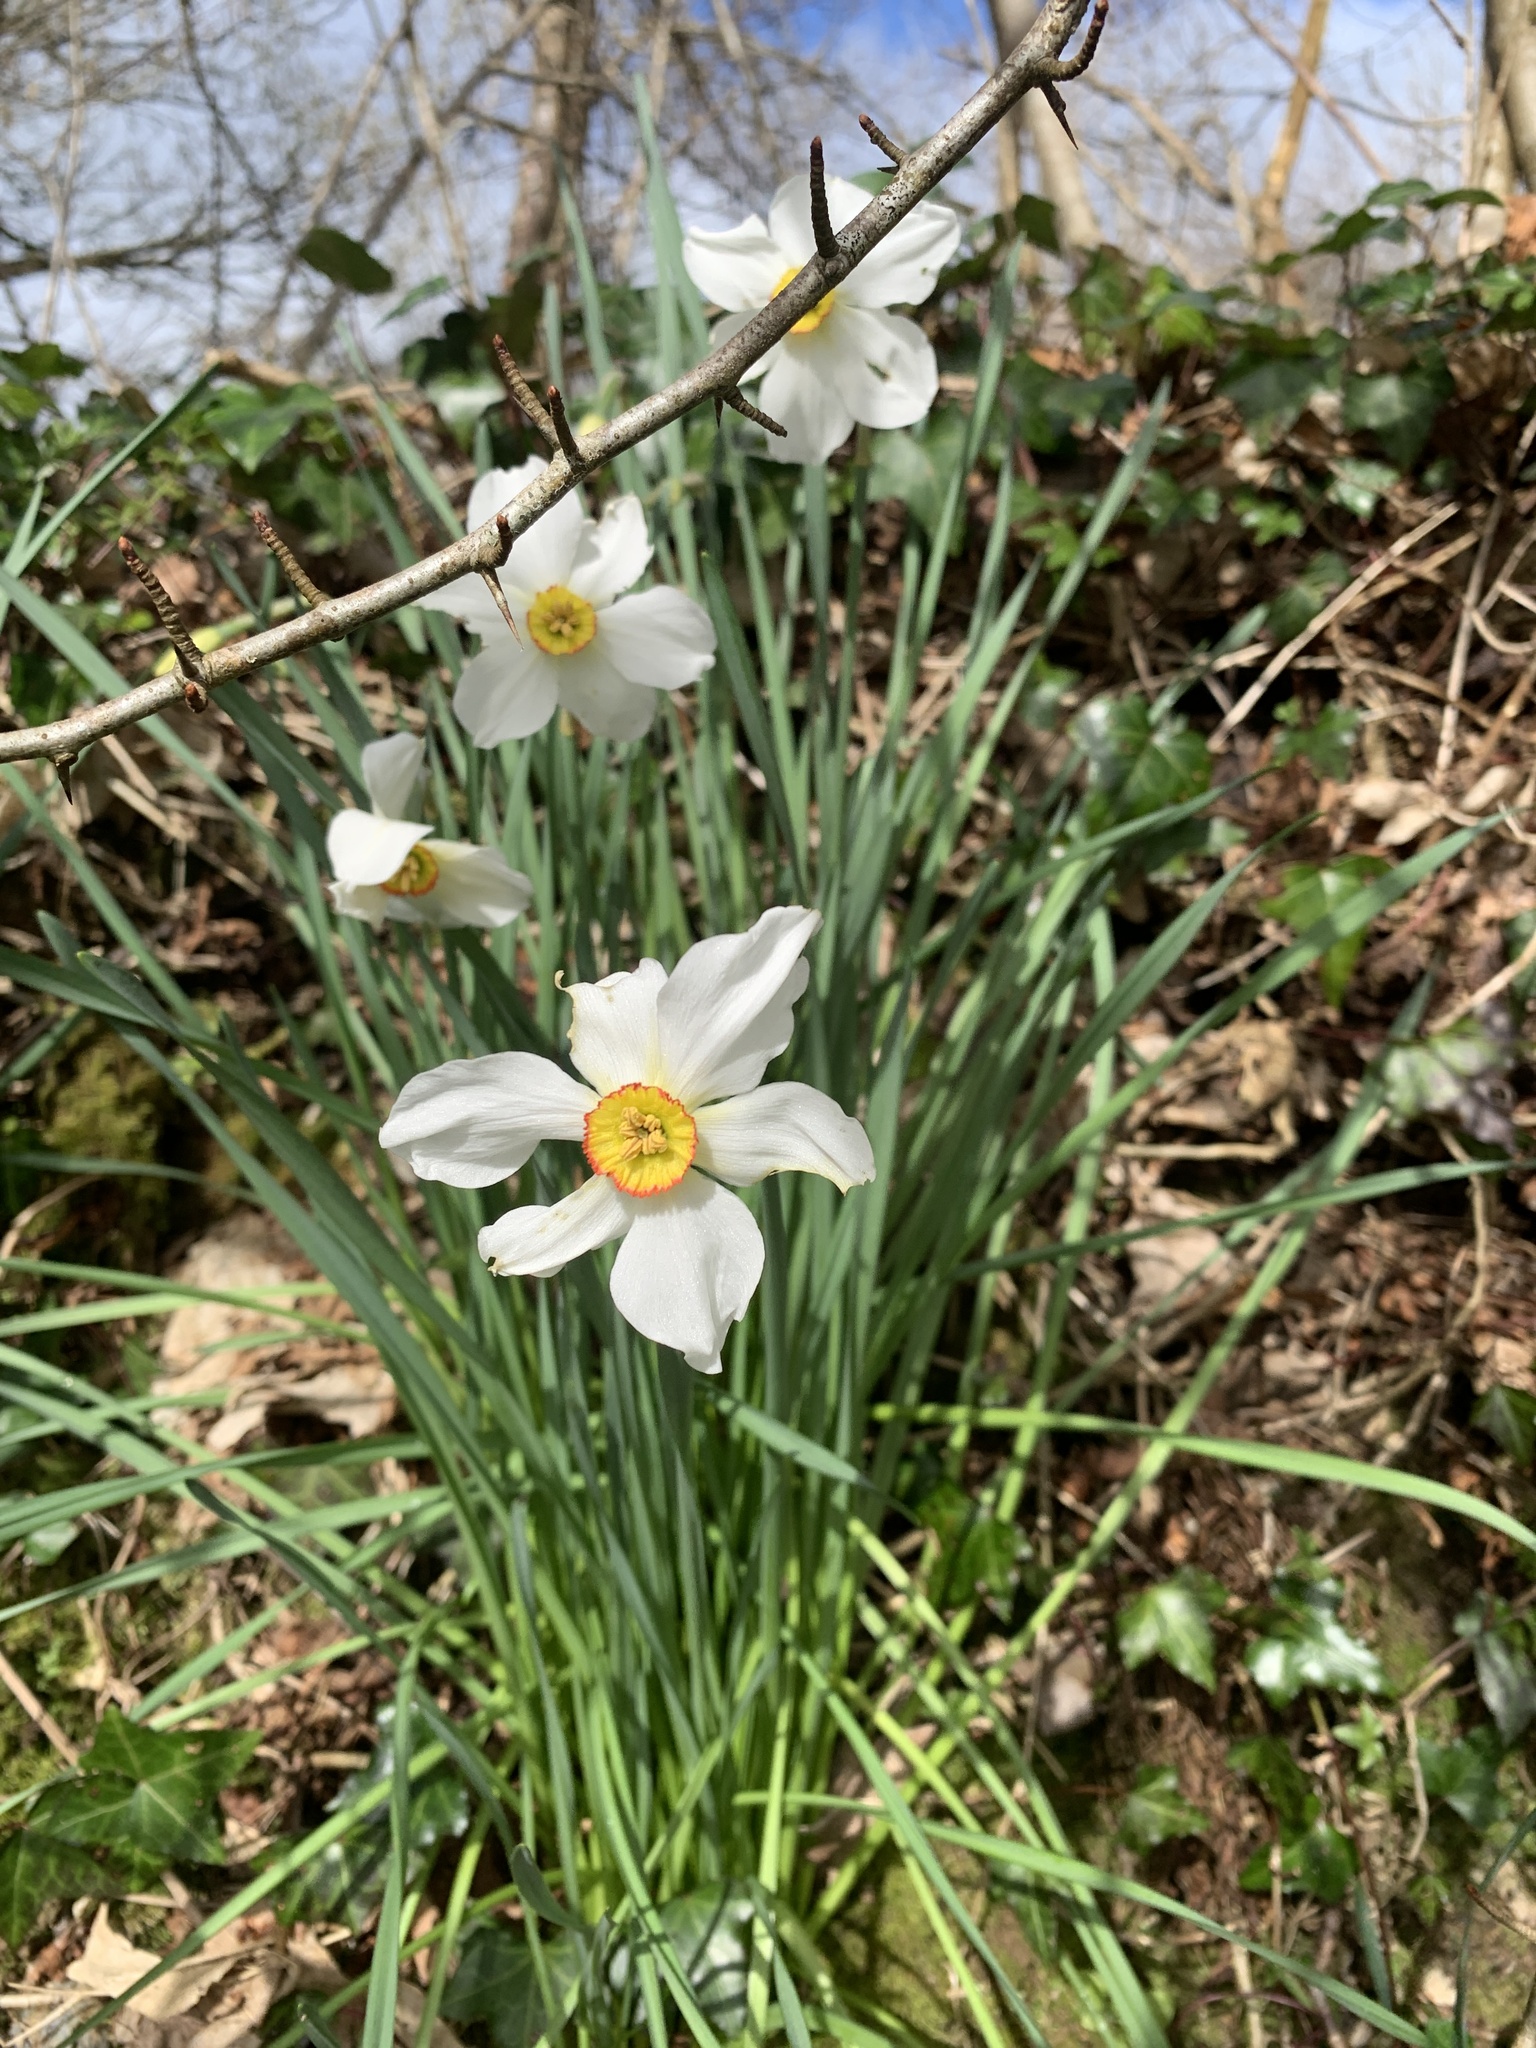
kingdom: Plantae
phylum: Tracheophyta
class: Liliopsida
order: Asparagales
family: Amaryllidaceae
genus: Narcissus
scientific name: Narcissus poeticus
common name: Pheasant's-eye daffodil
